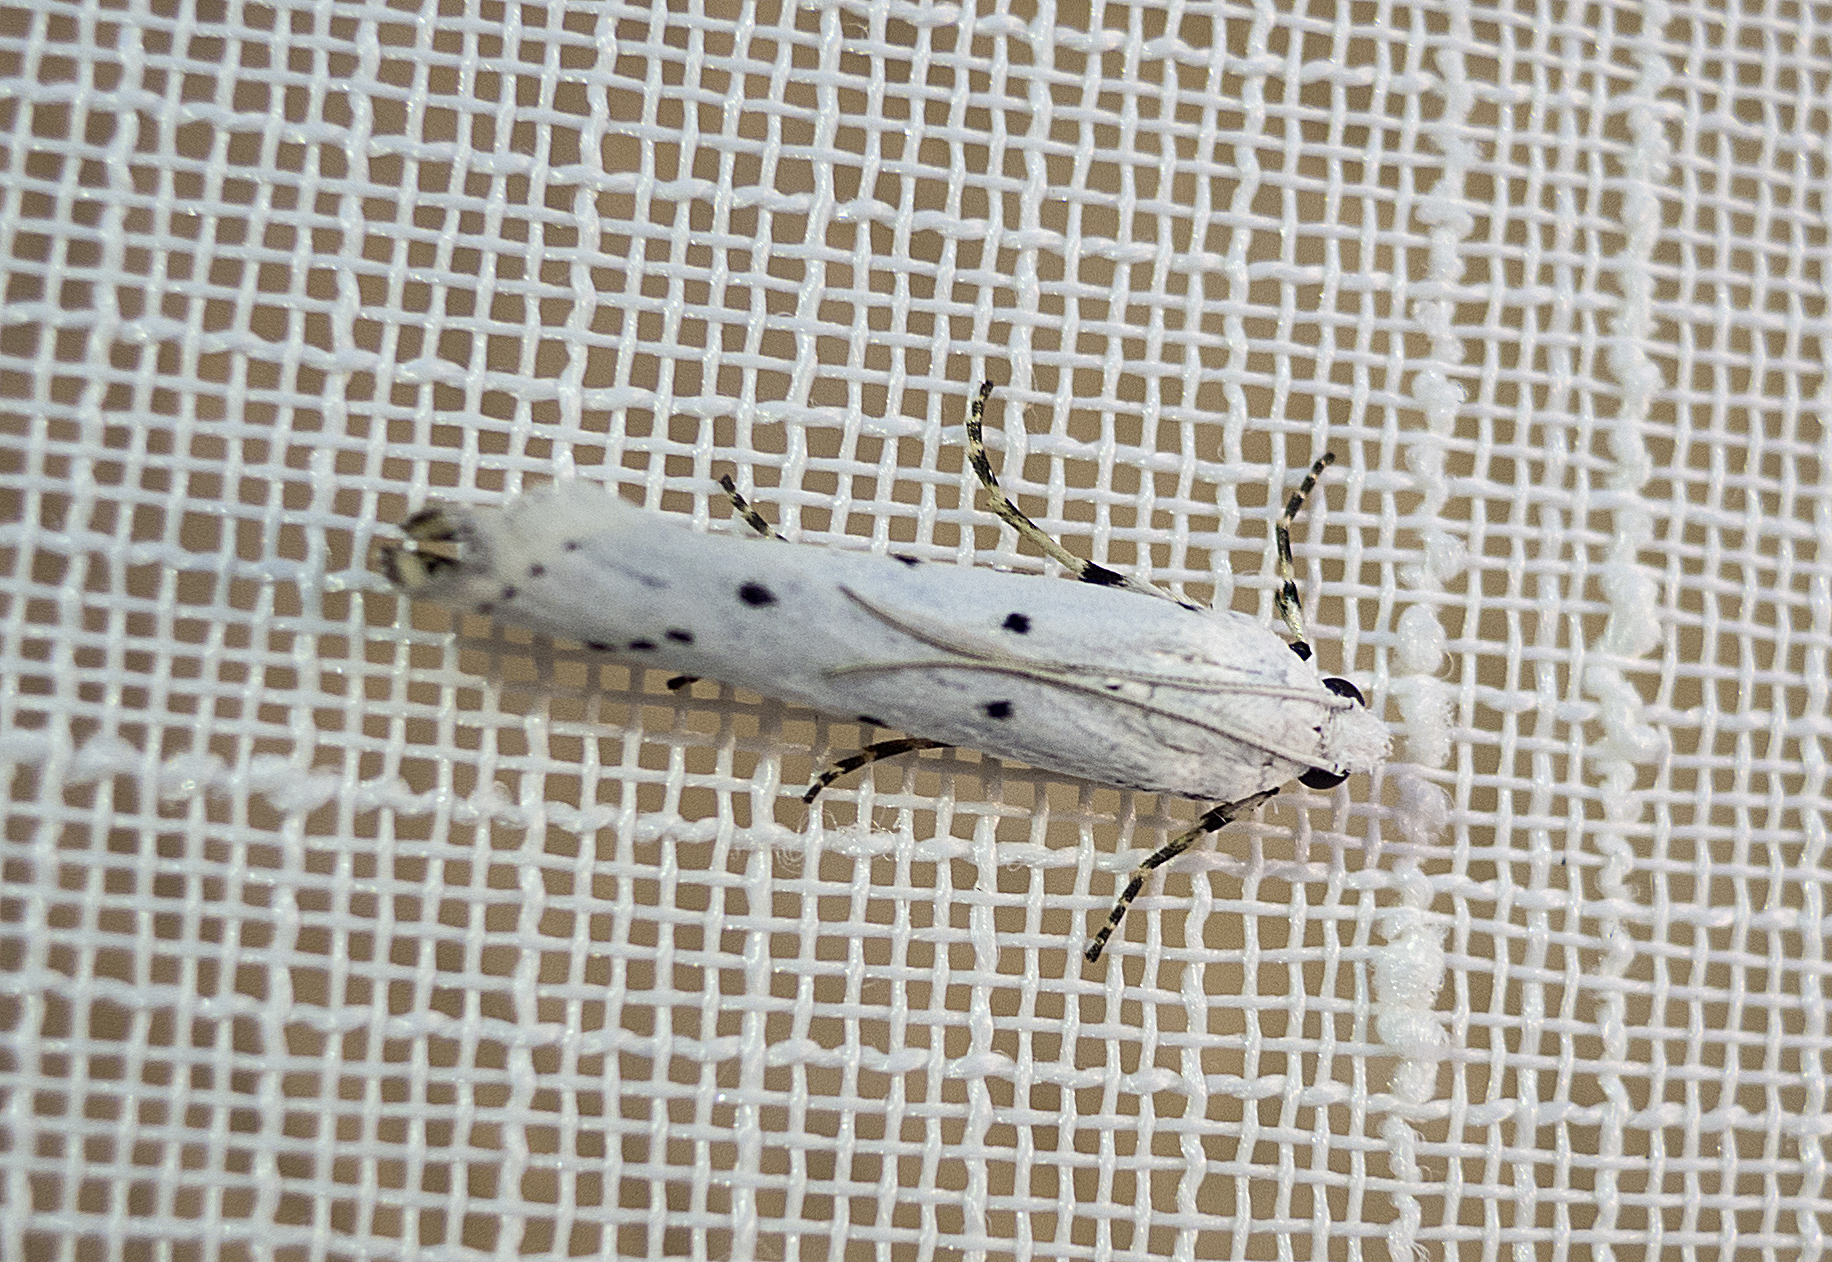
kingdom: Animalia
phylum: Arthropoda
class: Insecta
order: Lepidoptera
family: Pyralidae
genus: Myelois
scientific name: Myelois circumvoluta
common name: Thistle ermine
